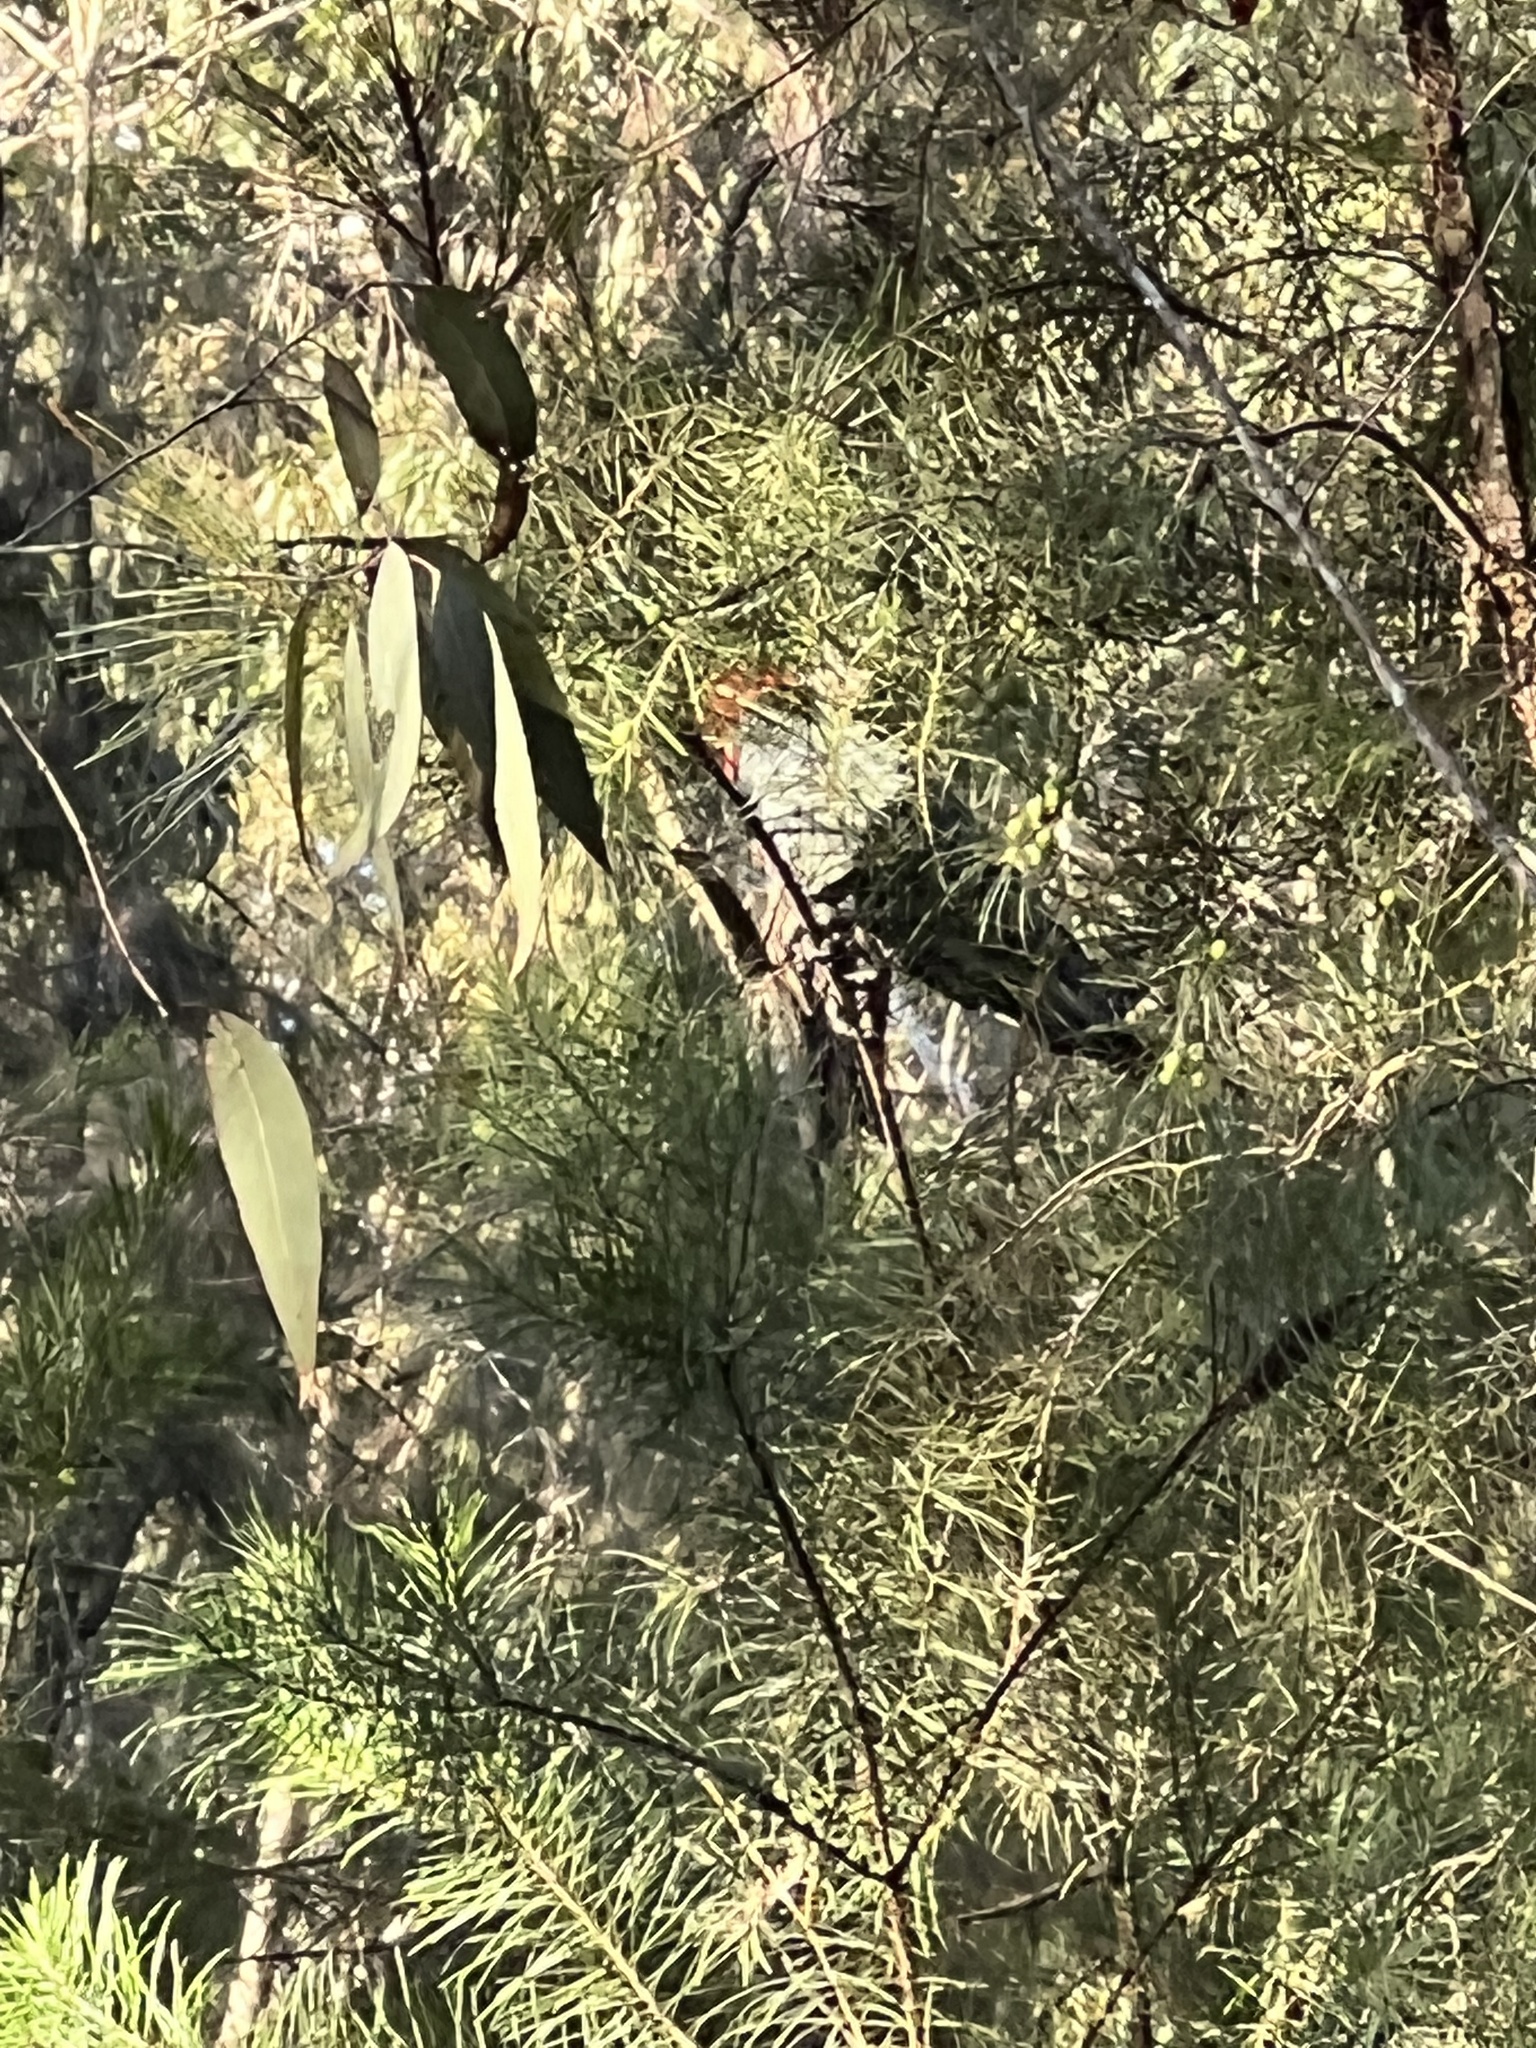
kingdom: Animalia
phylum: Chordata
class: Aves
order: Psittaciformes
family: Psittacidae
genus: Callocephalon
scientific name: Callocephalon fimbriatum
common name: Gang-gang cockatoo
